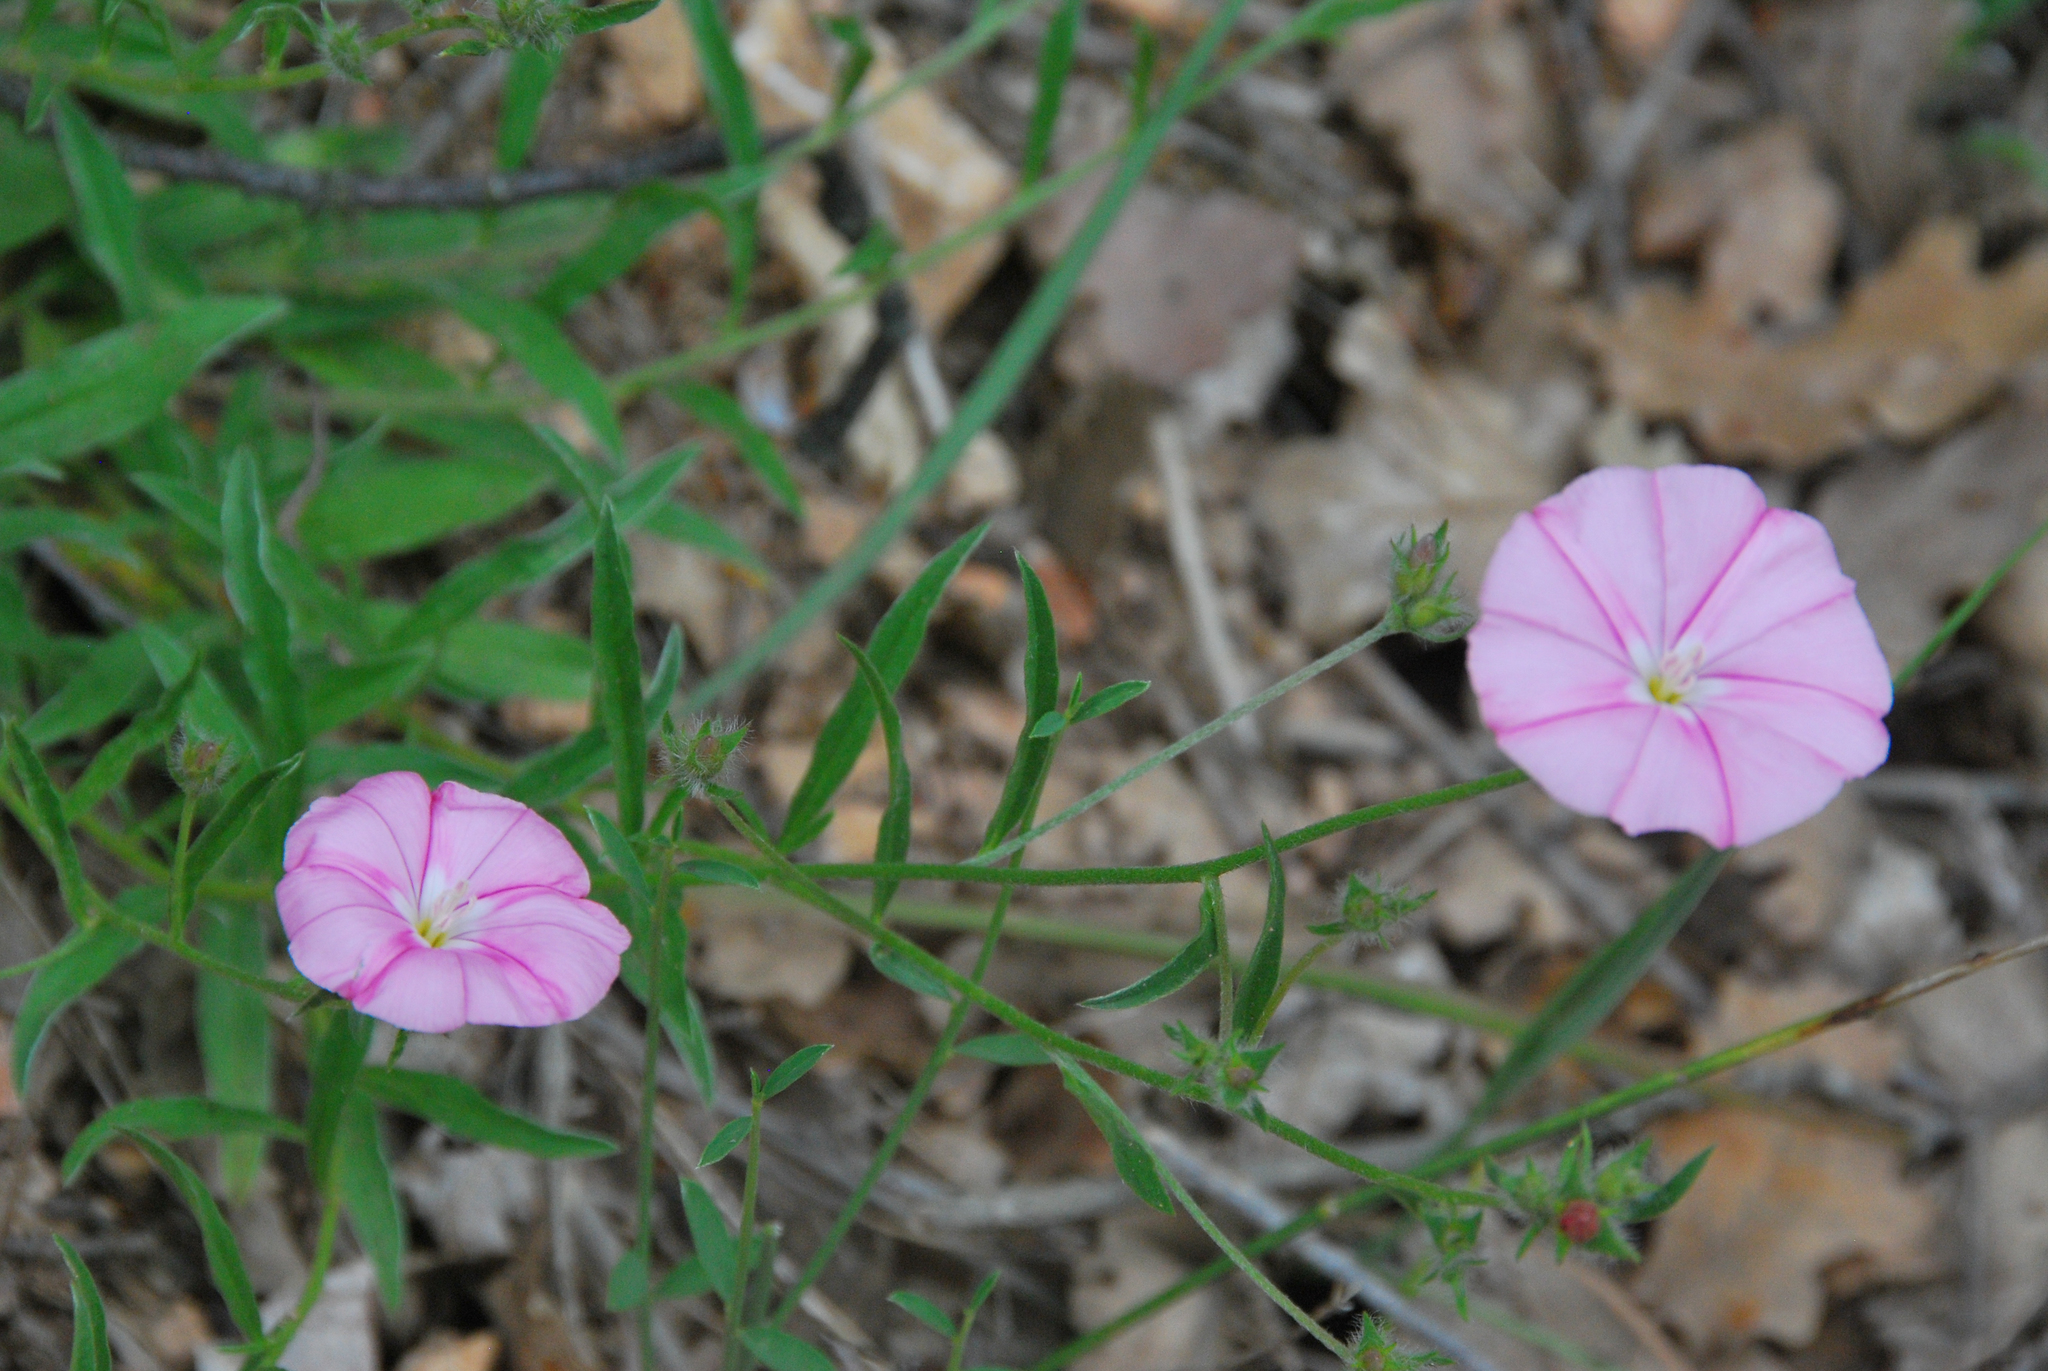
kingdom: Plantae
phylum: Tracheophyta
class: Magnoliopsida
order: Solanales
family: Convolvulaceae
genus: Convolvulus
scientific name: Convolvulus cantabrica
